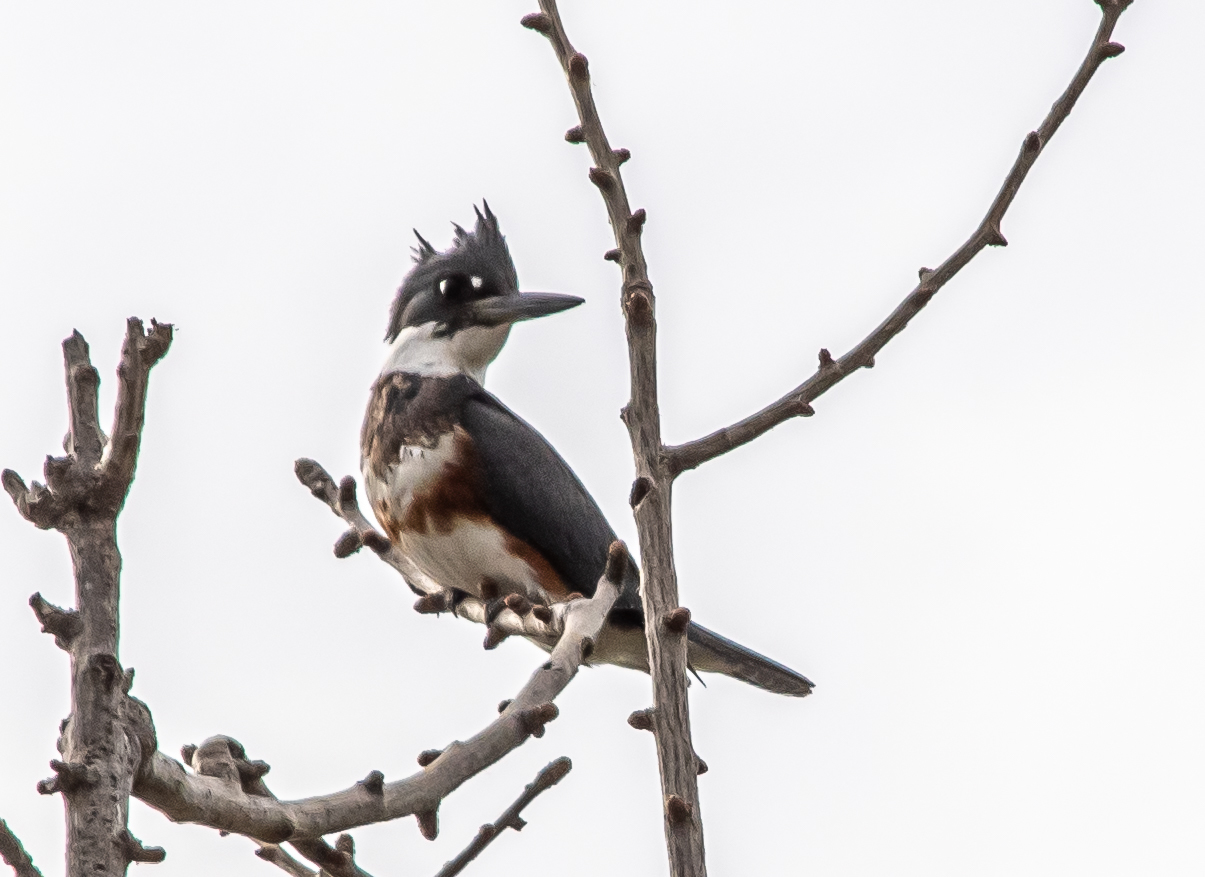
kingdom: Animalia
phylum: Chordata
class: Aves
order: Coraciiformes
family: Alcedinidae
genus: Megaceryle
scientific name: Megaceryle alcyon
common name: Belted kingfisher
